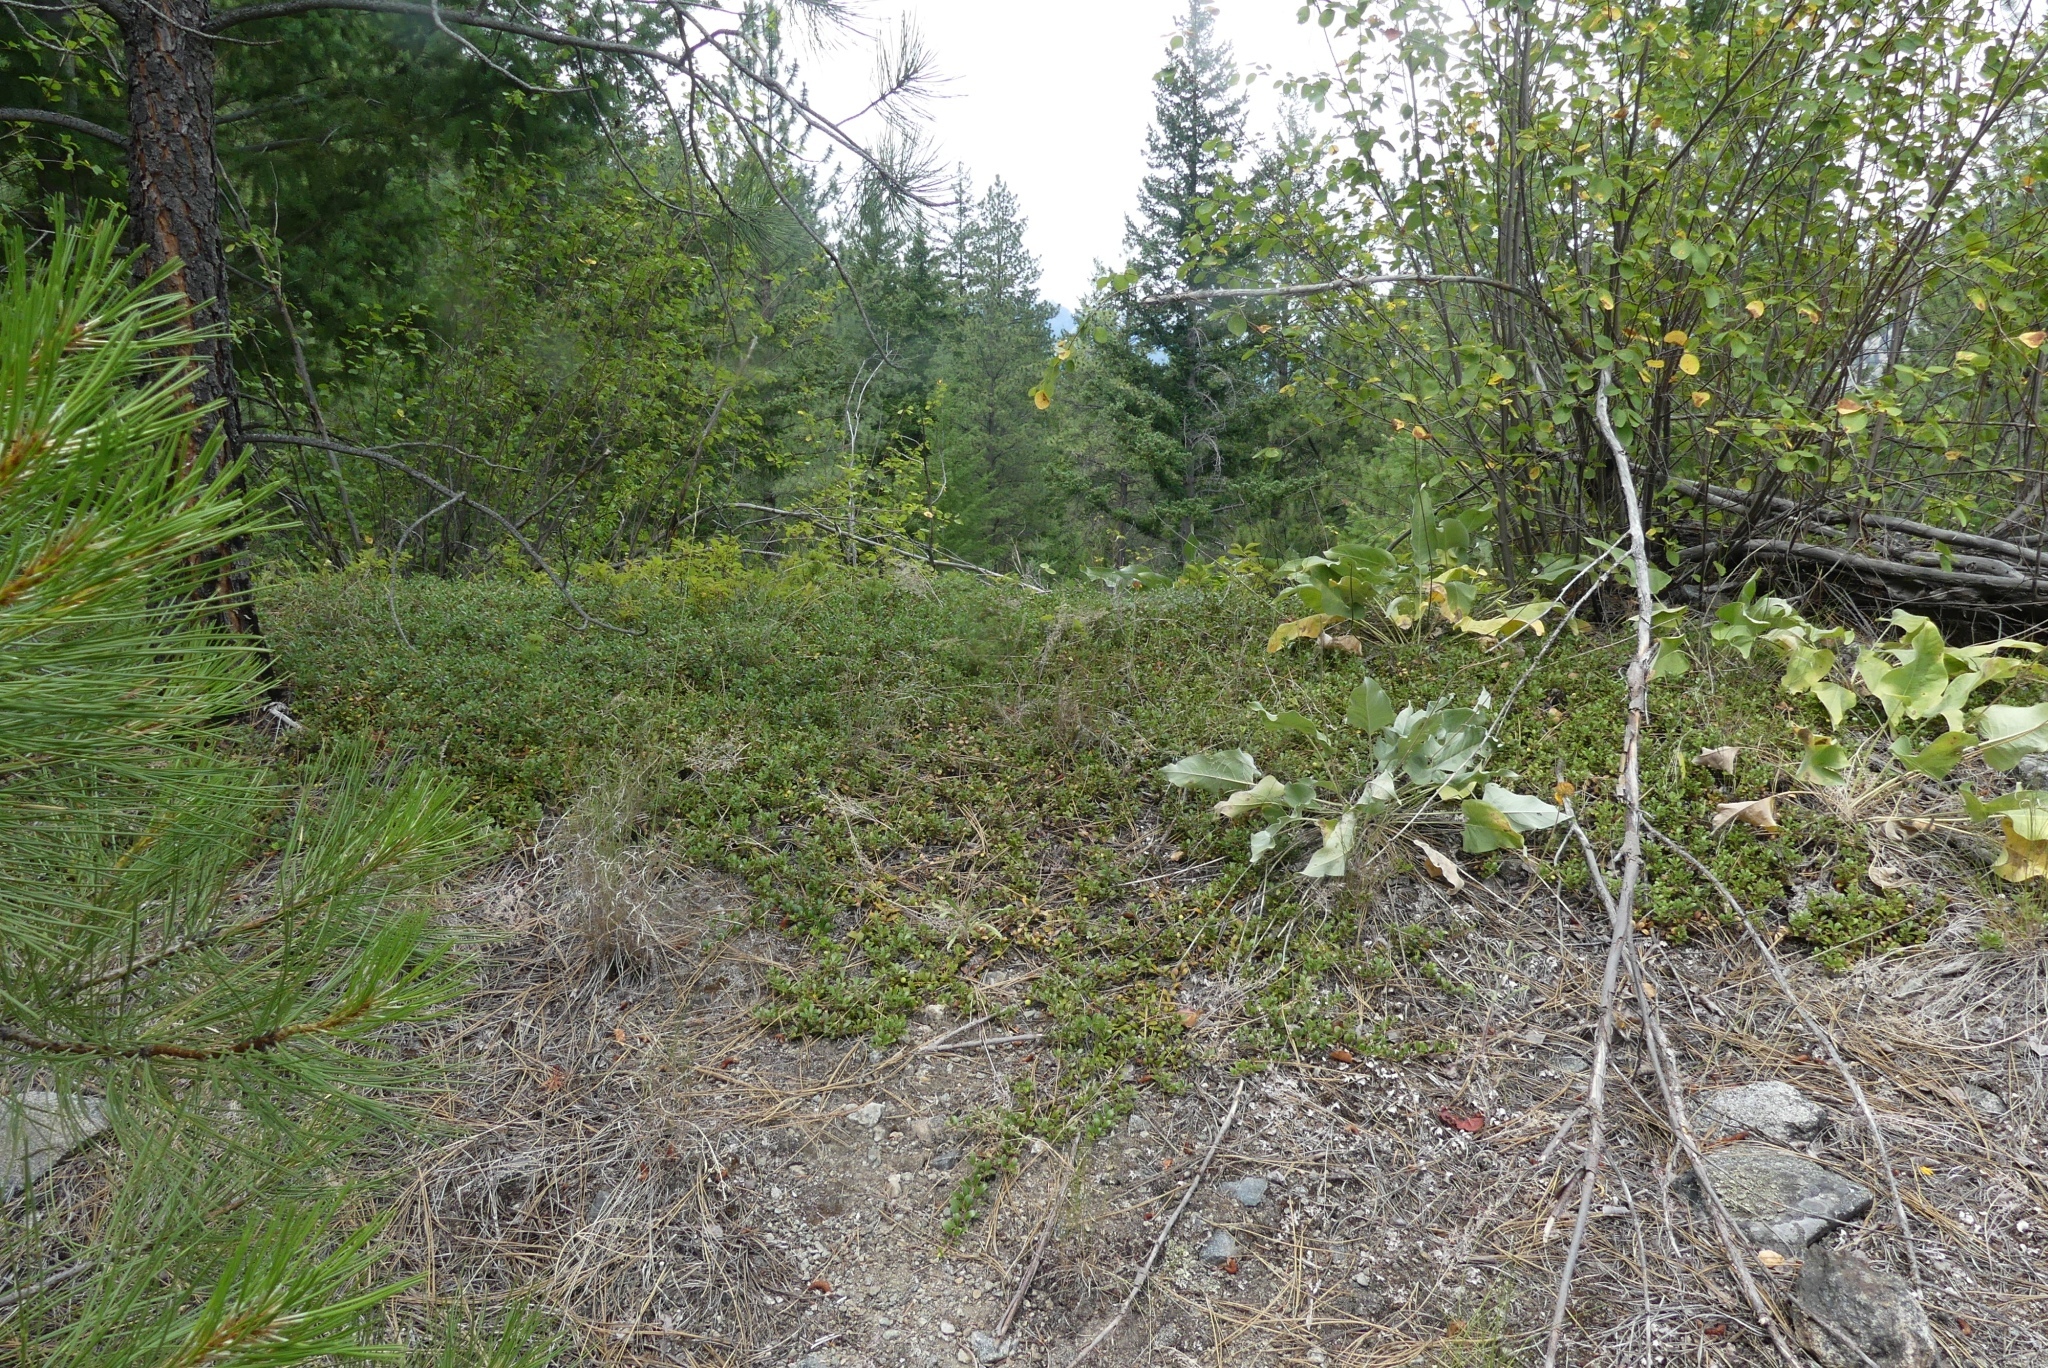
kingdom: Plantae
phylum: Tracheophyta
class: Magnoliopsida
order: Ericales
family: Ericaceae
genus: Arctostaphylos
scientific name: Arctostaphylos uva-ursi
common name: Bearberry
